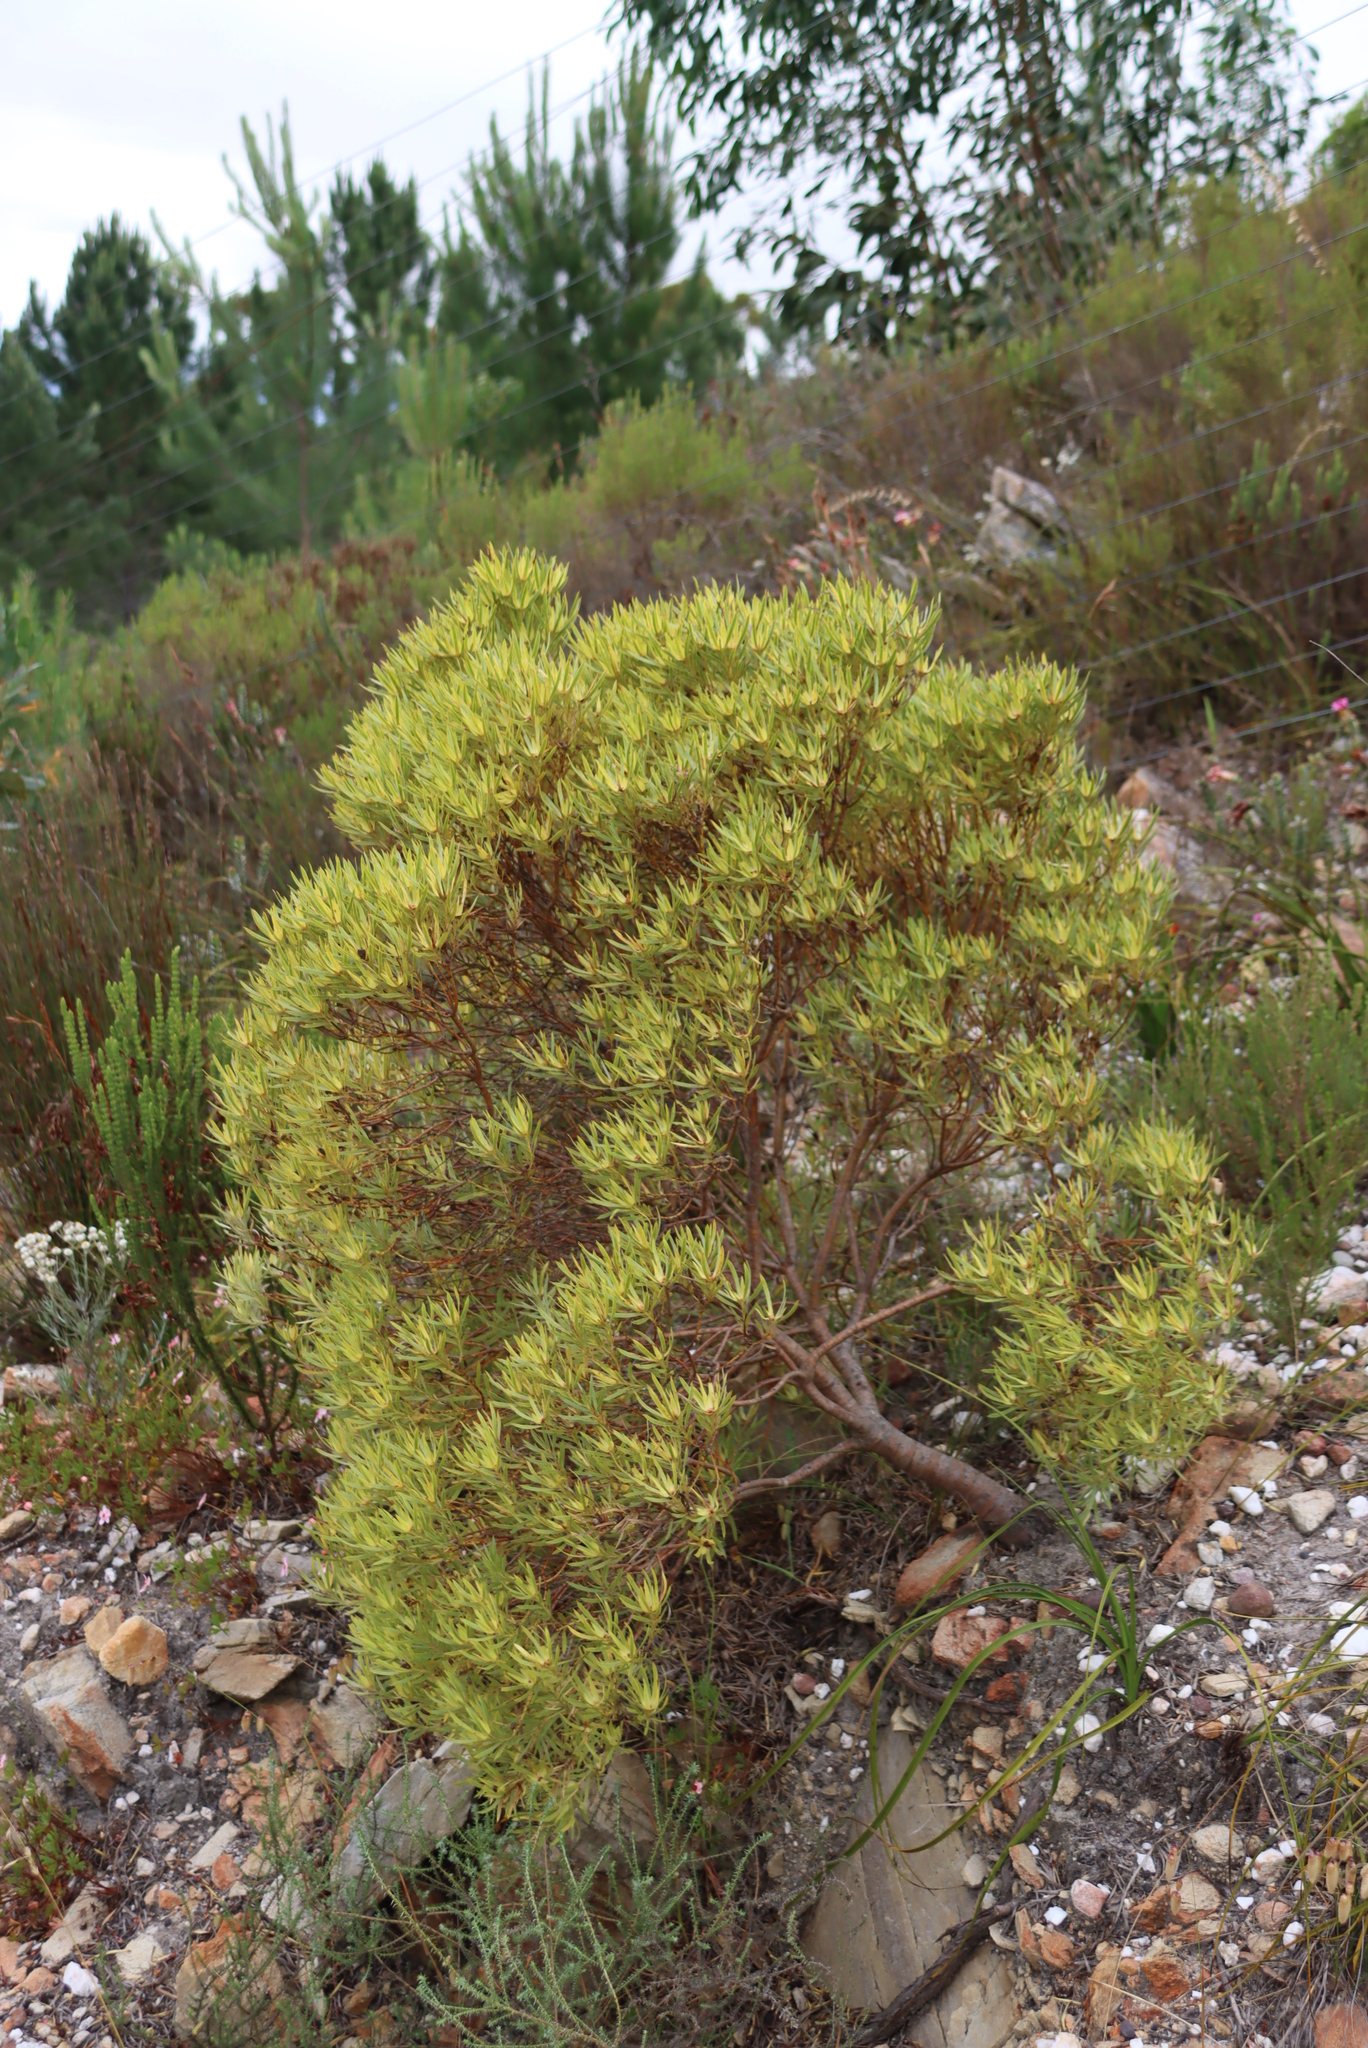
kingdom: Plantae
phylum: Tracheophyta
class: Magnoliopsida
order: Proteales
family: Proteaceae
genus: Leucadendron
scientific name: Leucadendron xanthoconus
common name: Sickle-leaf conebush
